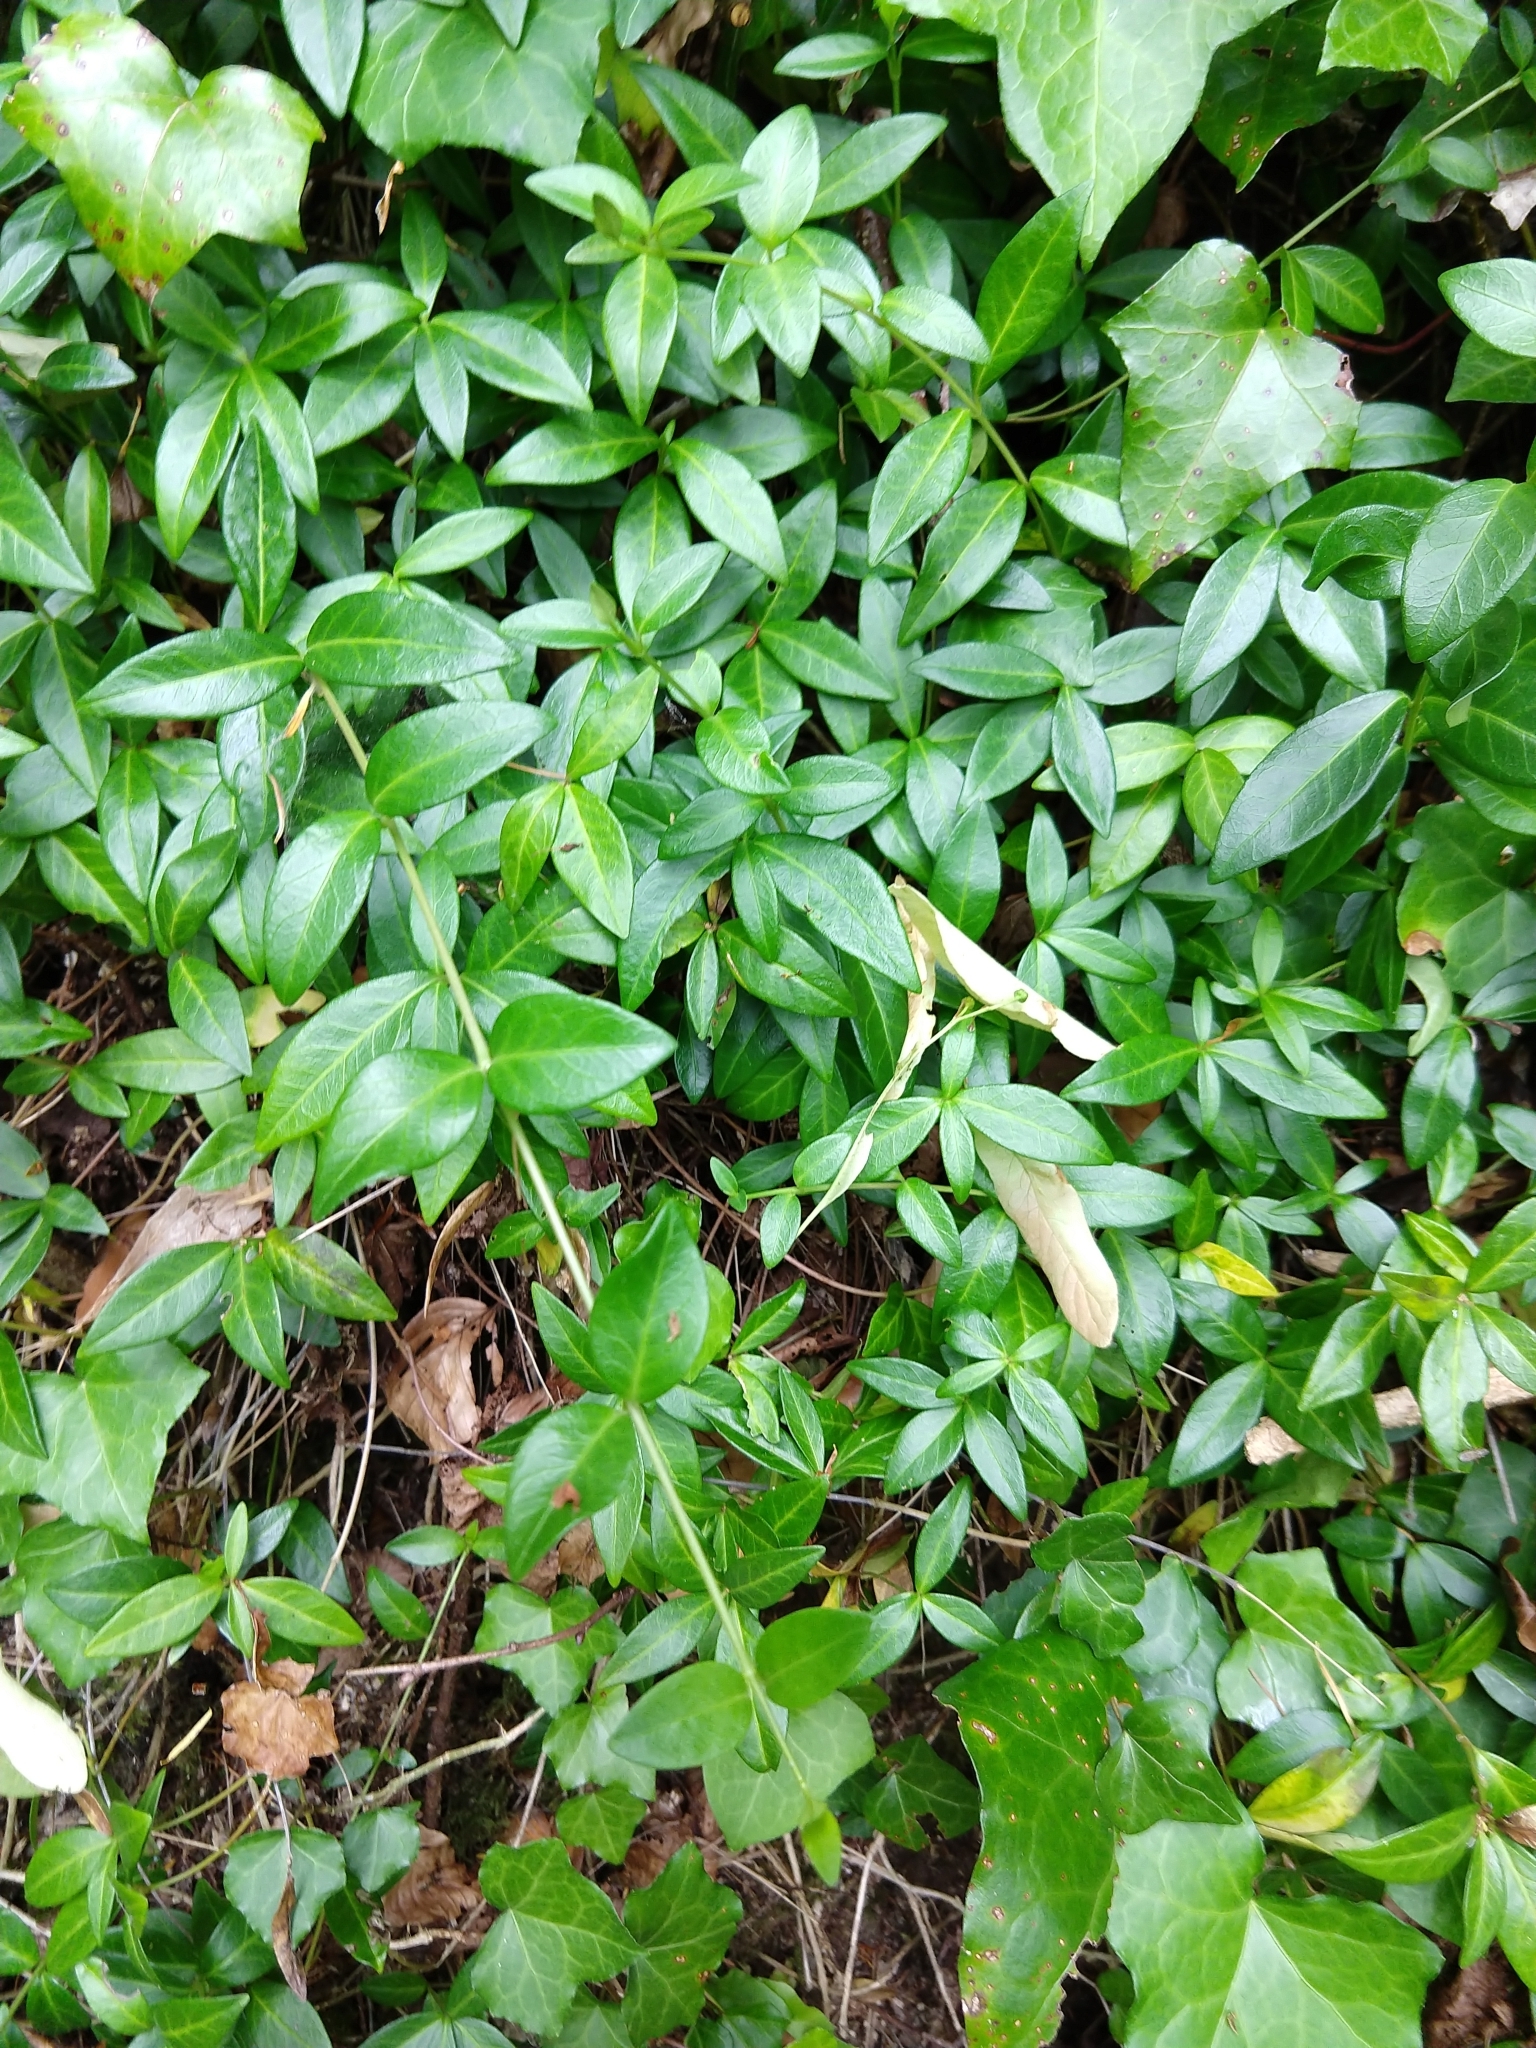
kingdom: Plantae
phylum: Tracheophyta
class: Magnoliopsida
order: Gentianales
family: Apocynaceae
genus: Vinca
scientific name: Vinca minor
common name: Lesser periwinkle
